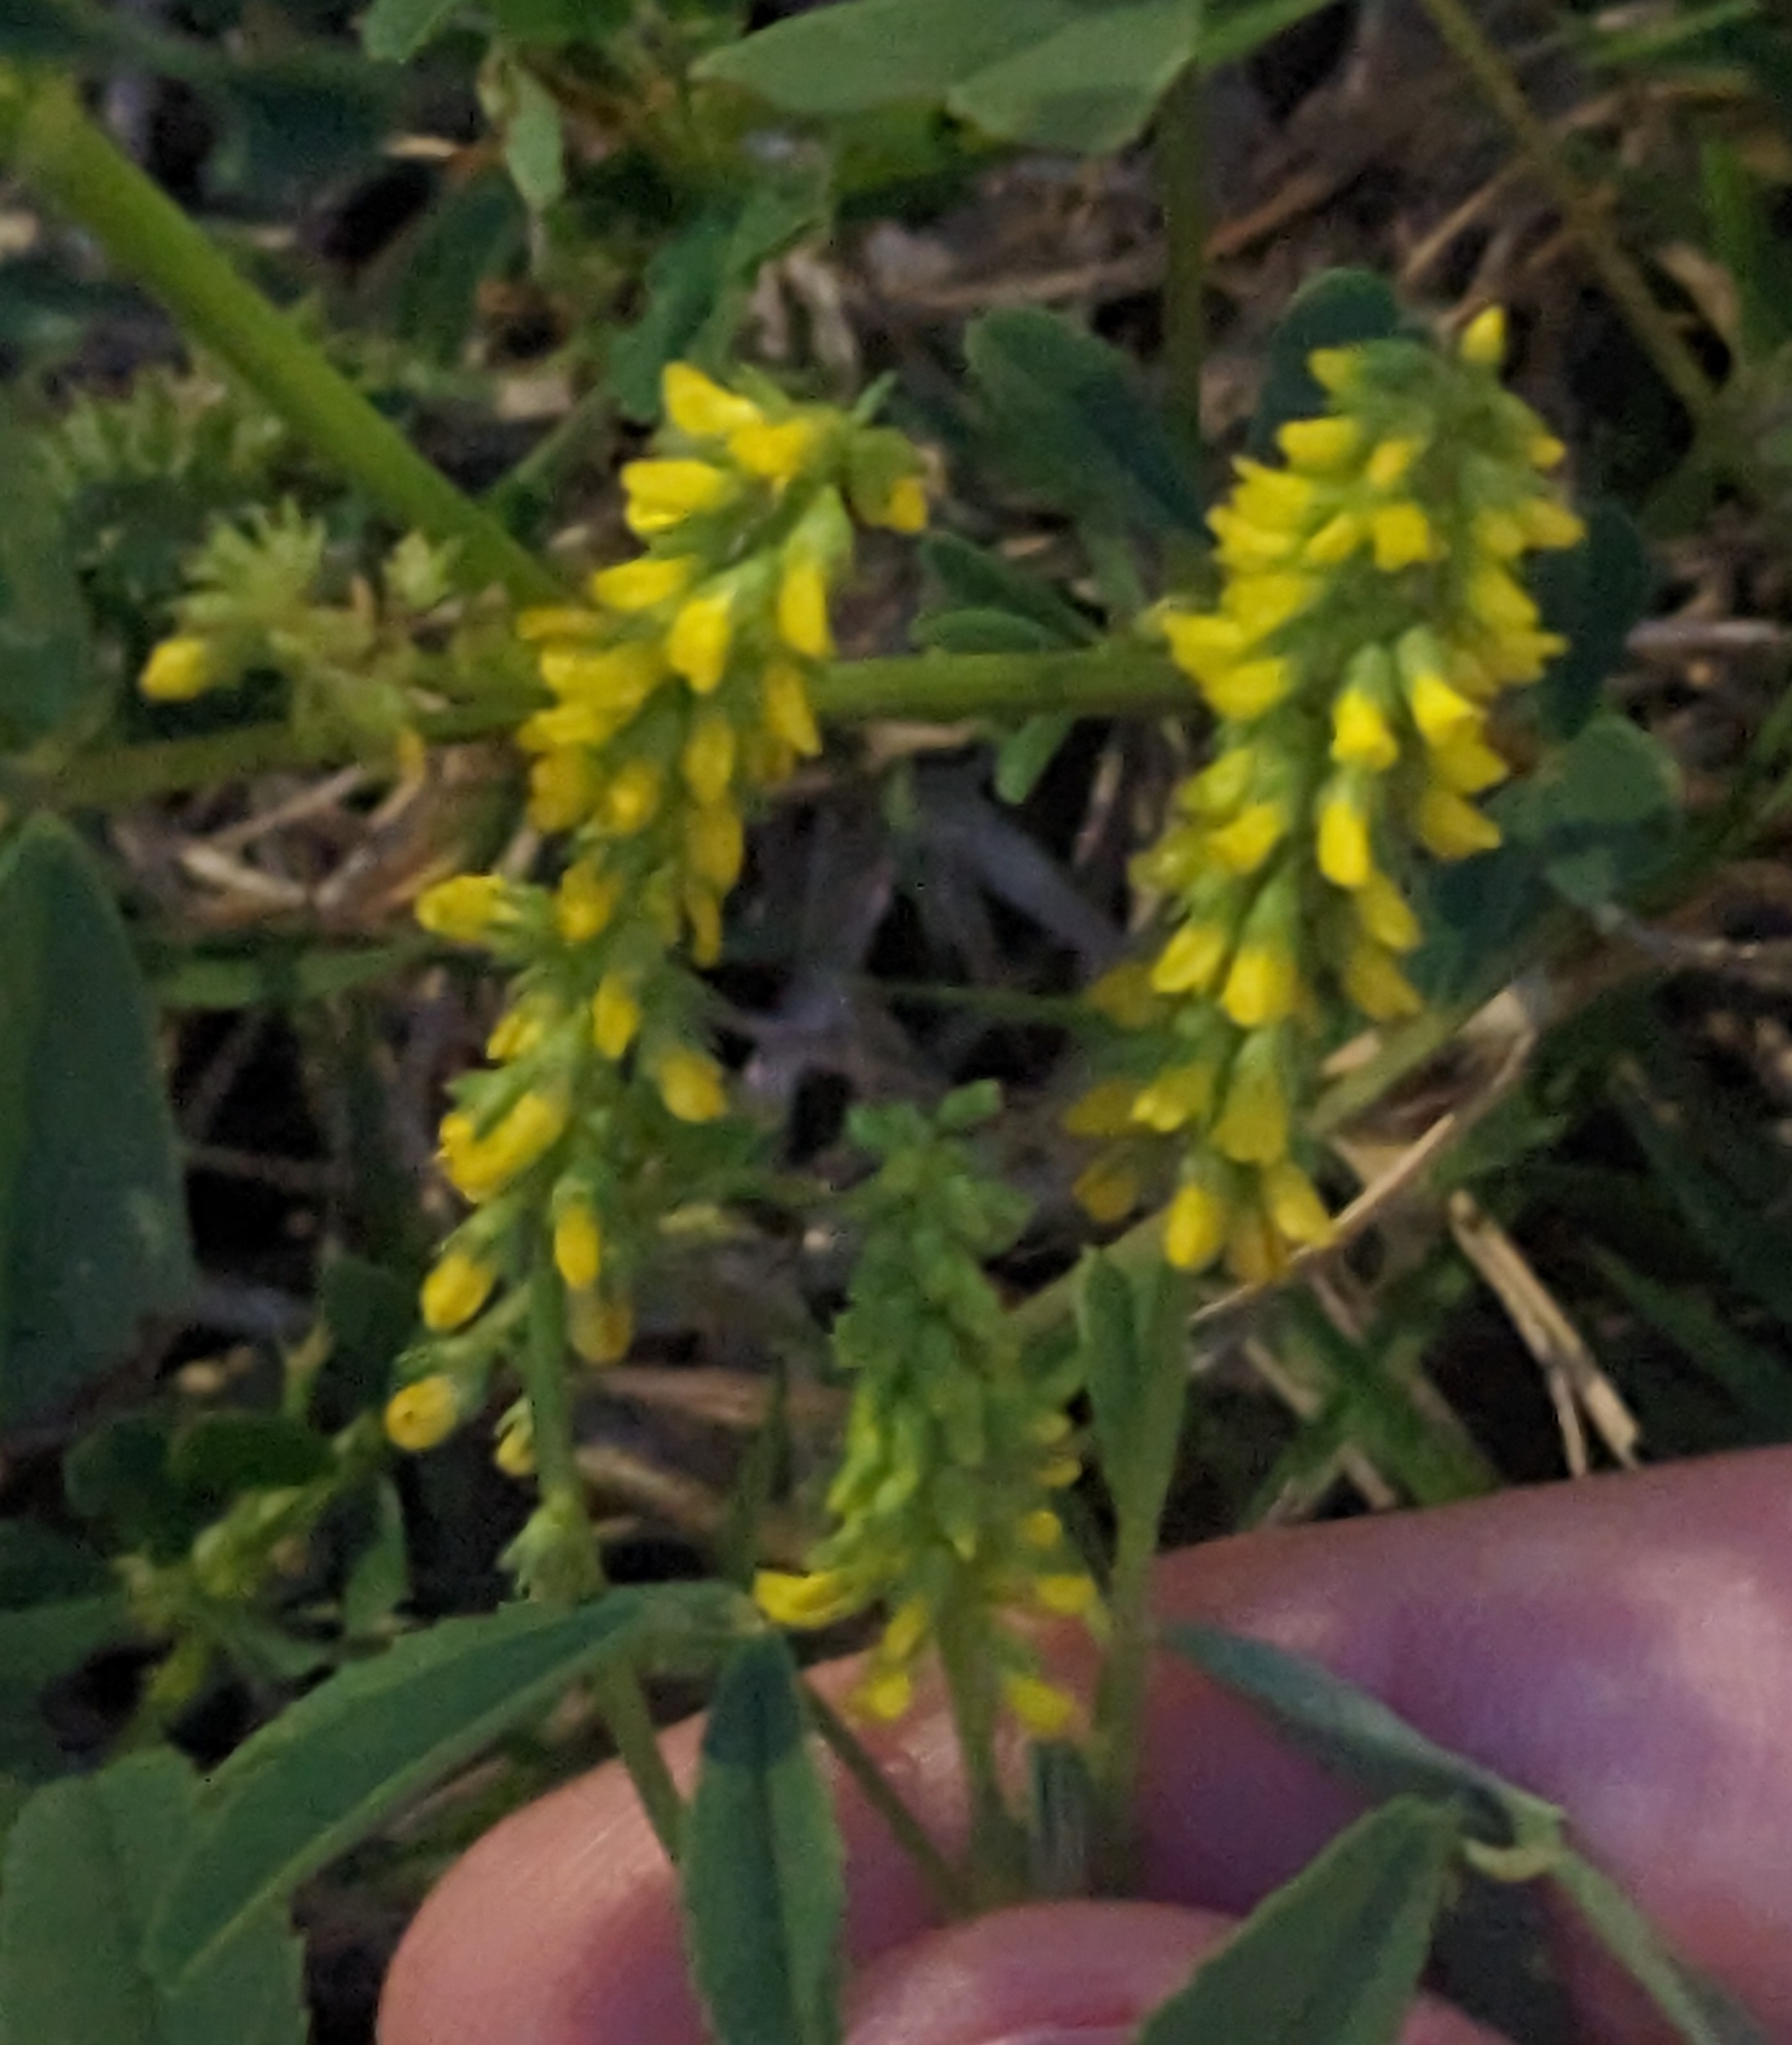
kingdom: Plantae
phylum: Tracheophyta
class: Magnoliopsida
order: Fabales
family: Fabaceae
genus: Melilotus
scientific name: Melilotus indicus
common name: Small melilot
